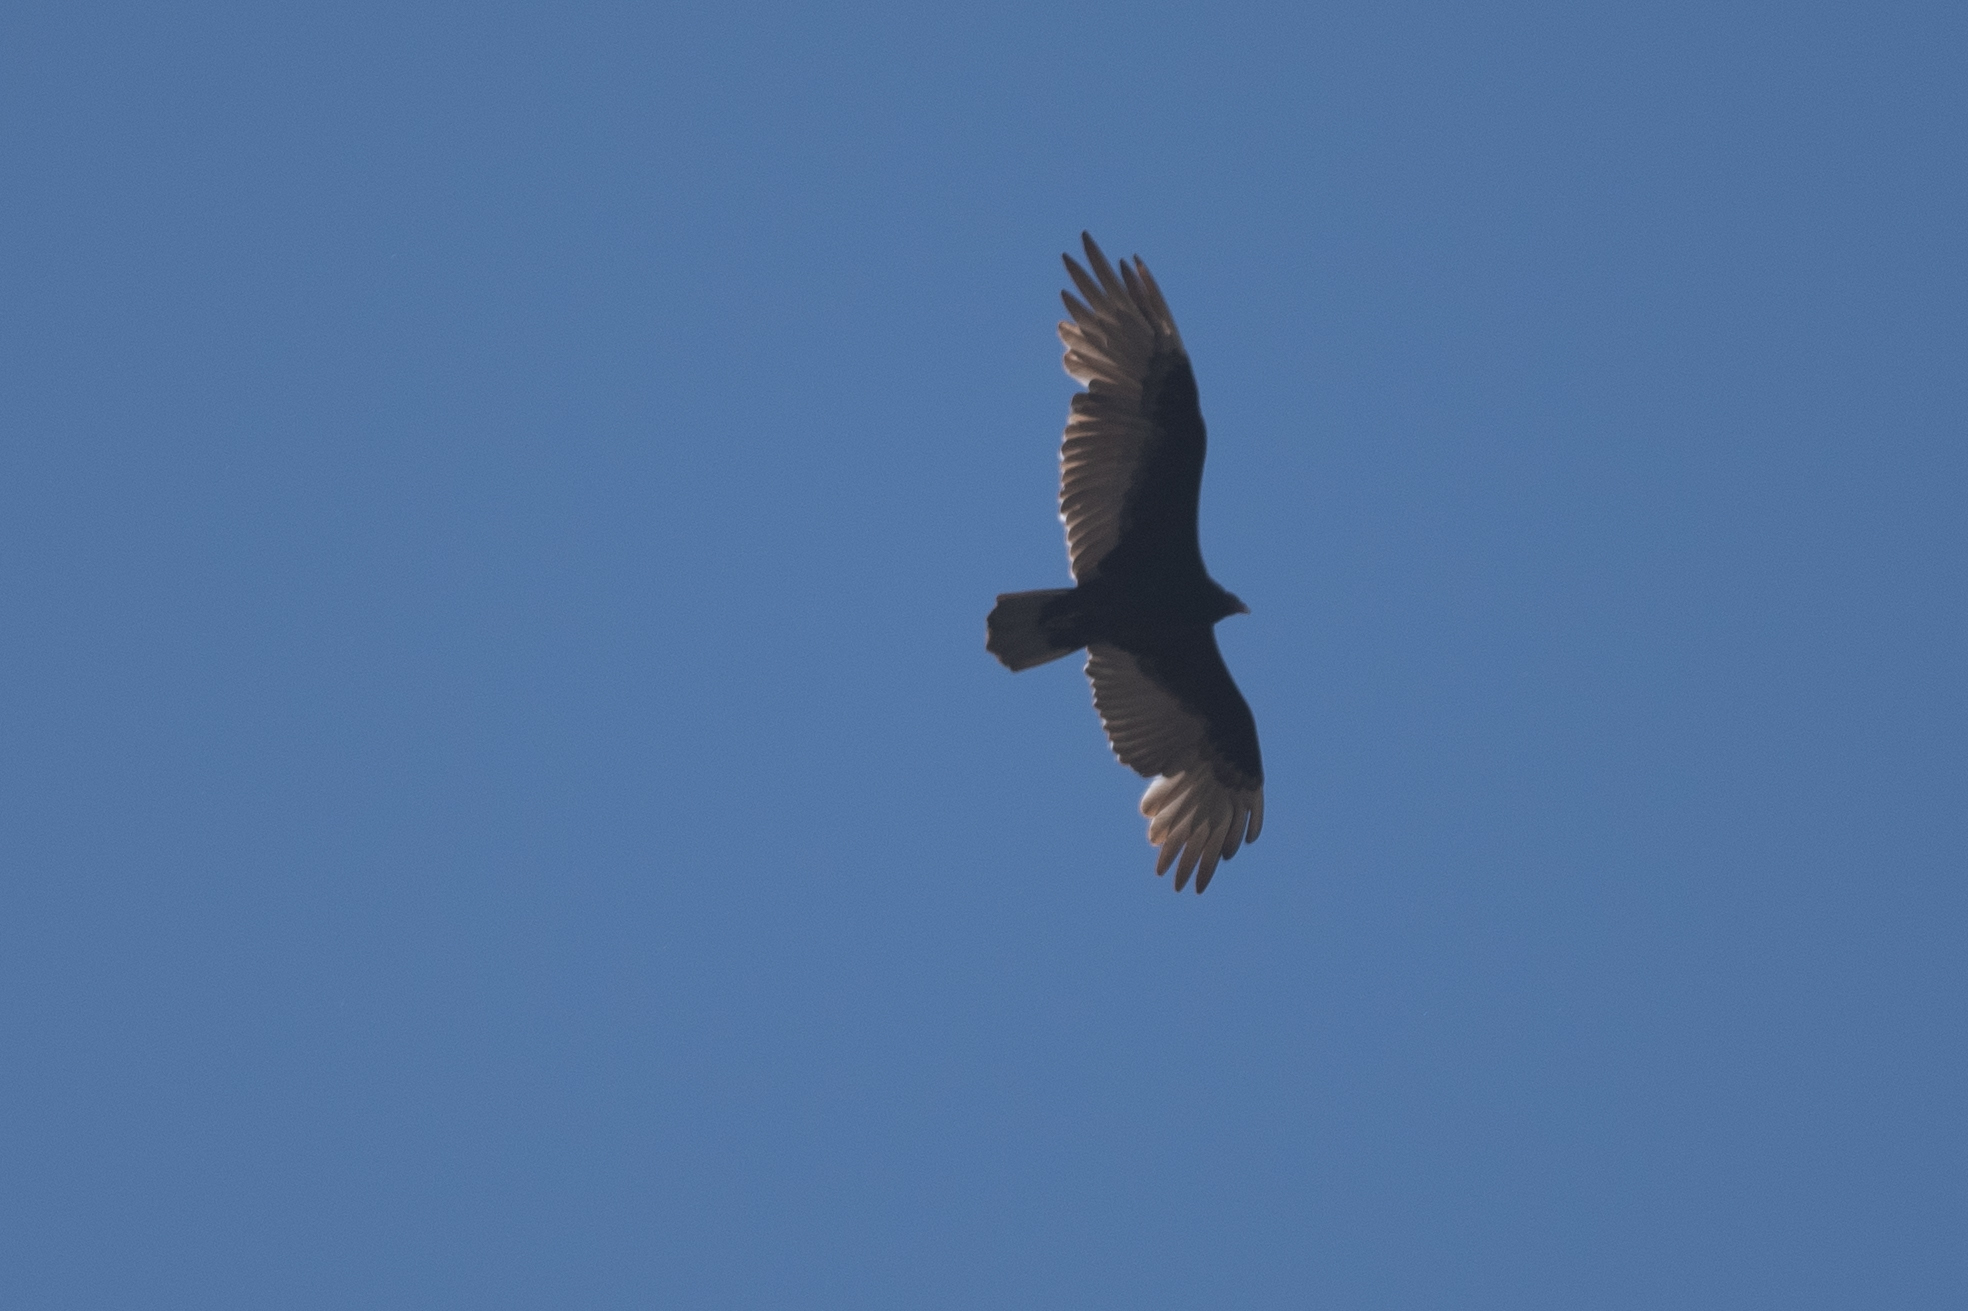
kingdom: Animalia
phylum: Chordata
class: Aves
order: Accipitriformes
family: Cathartidae
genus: Cathartes
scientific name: Cathartes aura
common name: Turkey vulture
